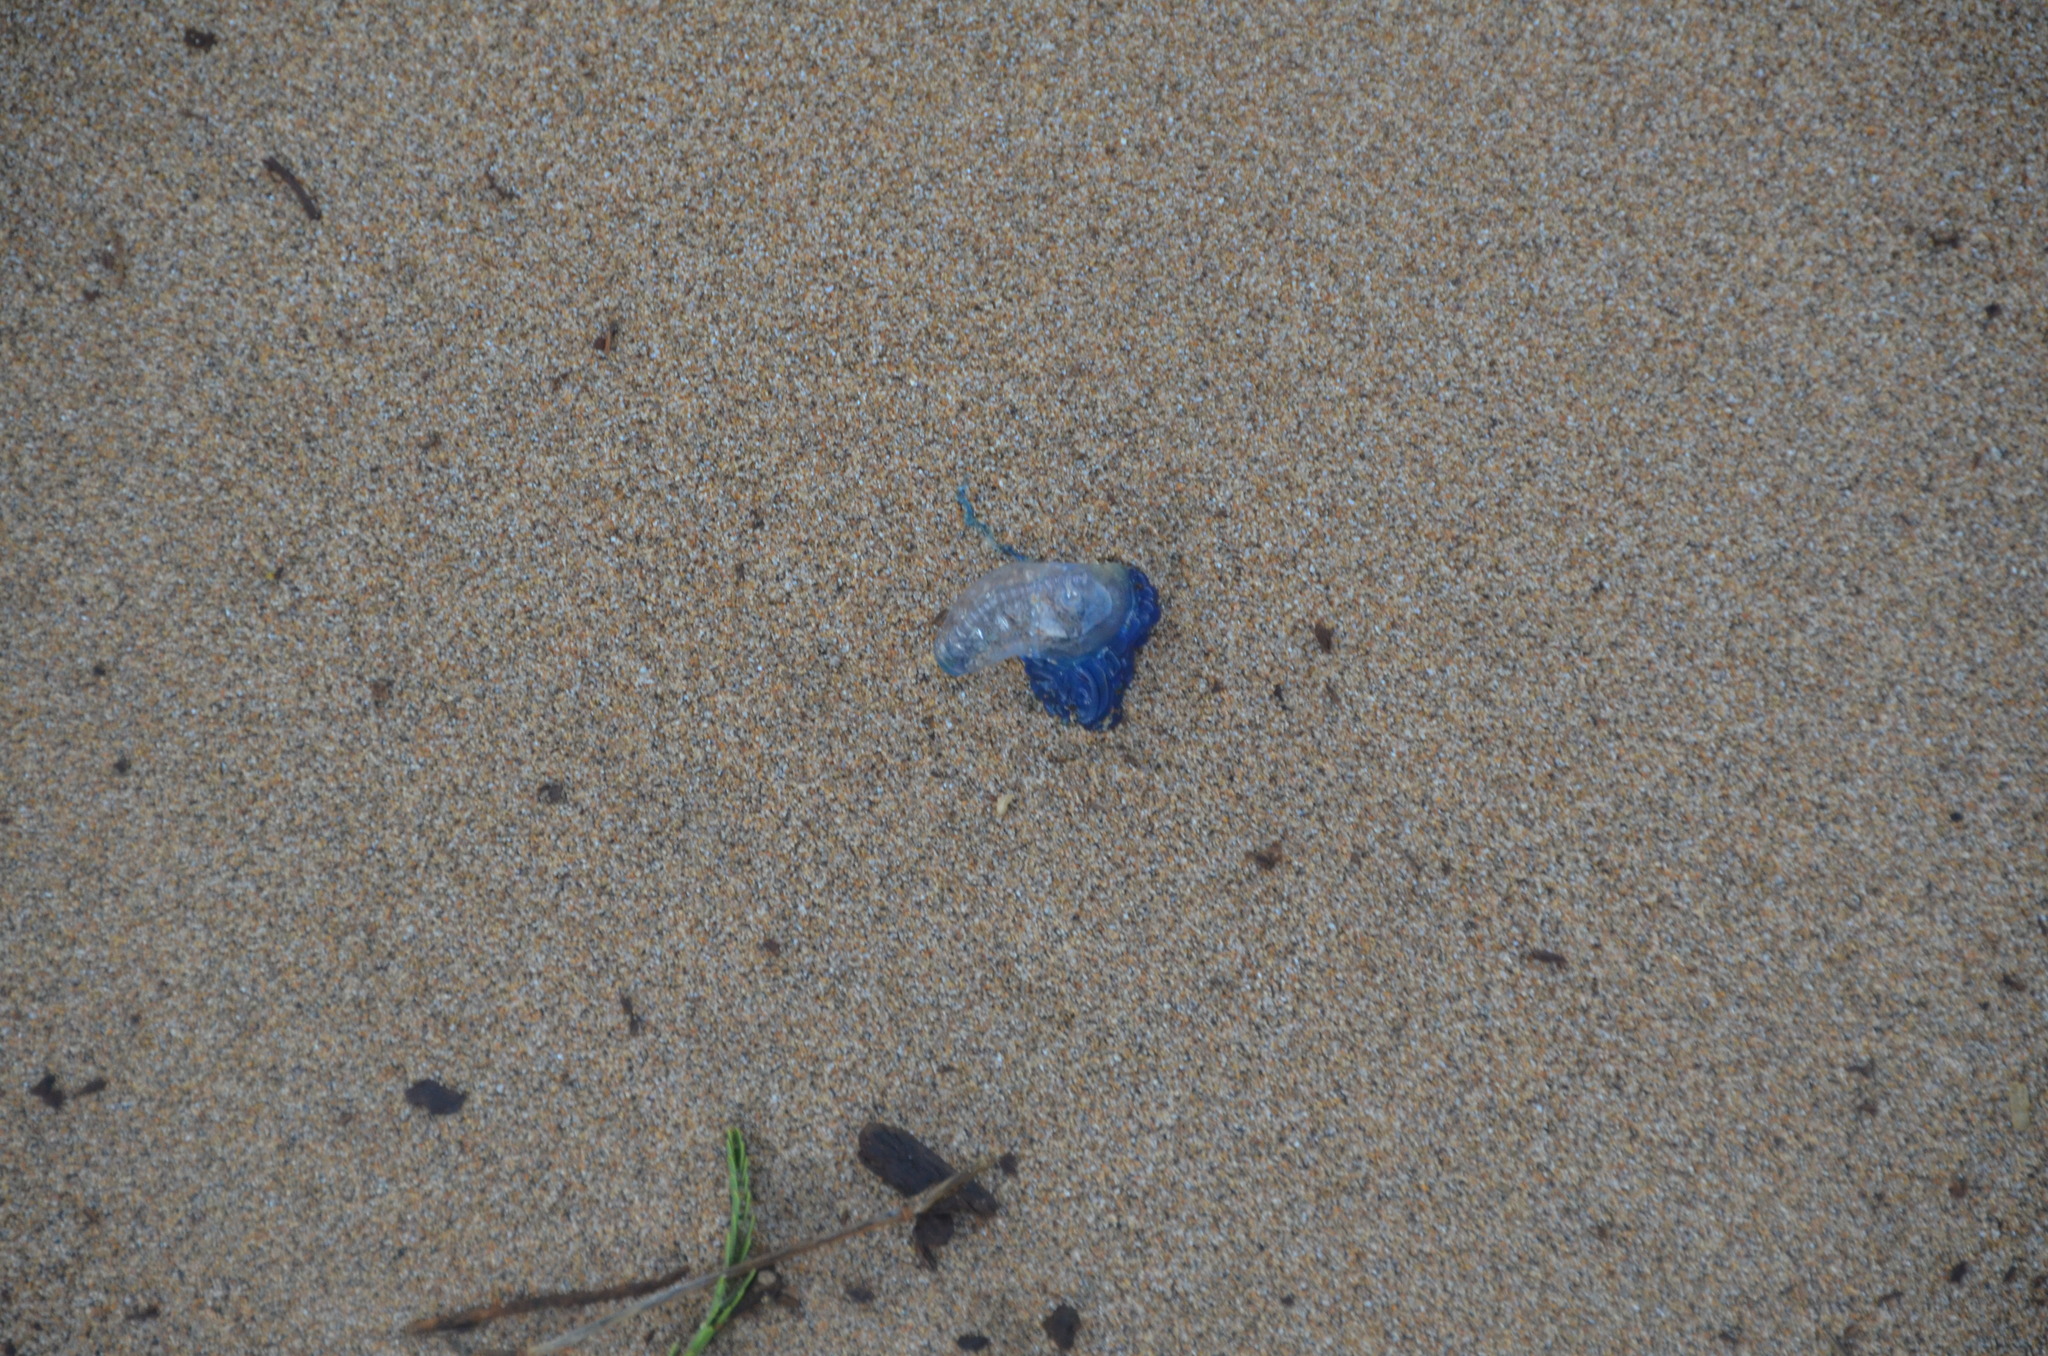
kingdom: Animalia
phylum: Cnidaria
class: Hydrozoa
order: Siphonophorae
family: Physaliidae
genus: Physalia
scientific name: Physalia physalis
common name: Portuguese man-of-war
